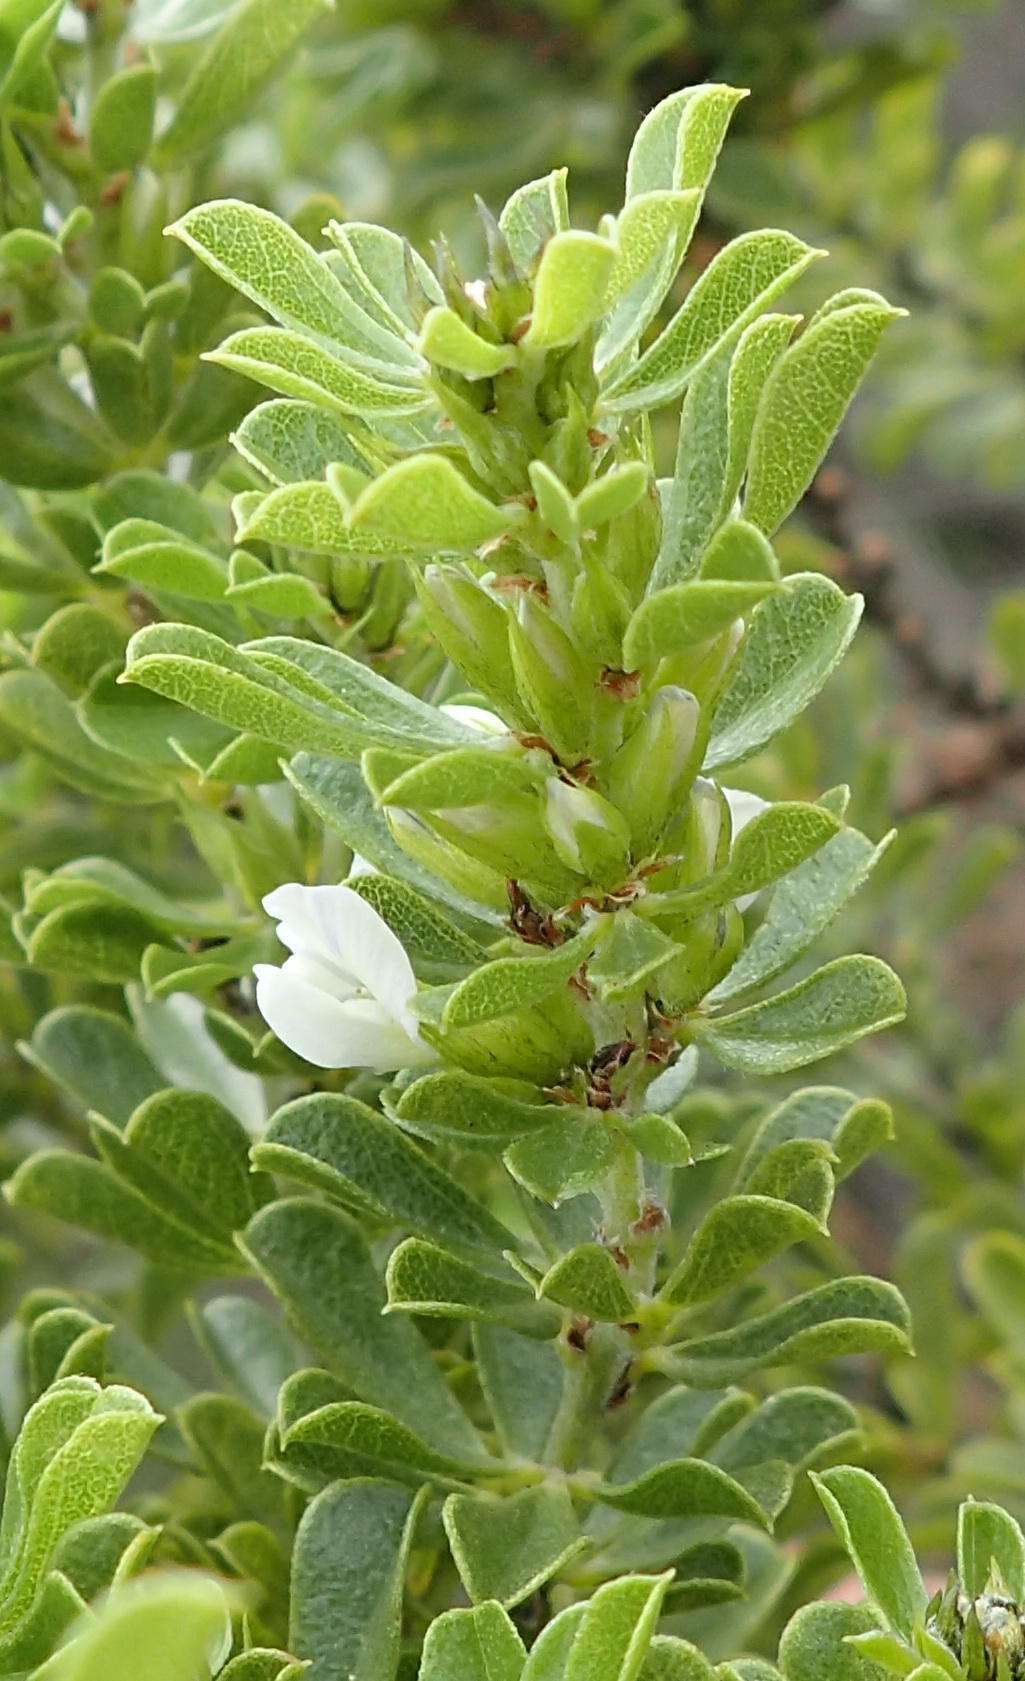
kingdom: Plantae
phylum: Tracheophyta
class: Magnoliopsida
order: Fabales
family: Fabaceae
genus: Psoralea
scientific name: Psoralea prodiens
